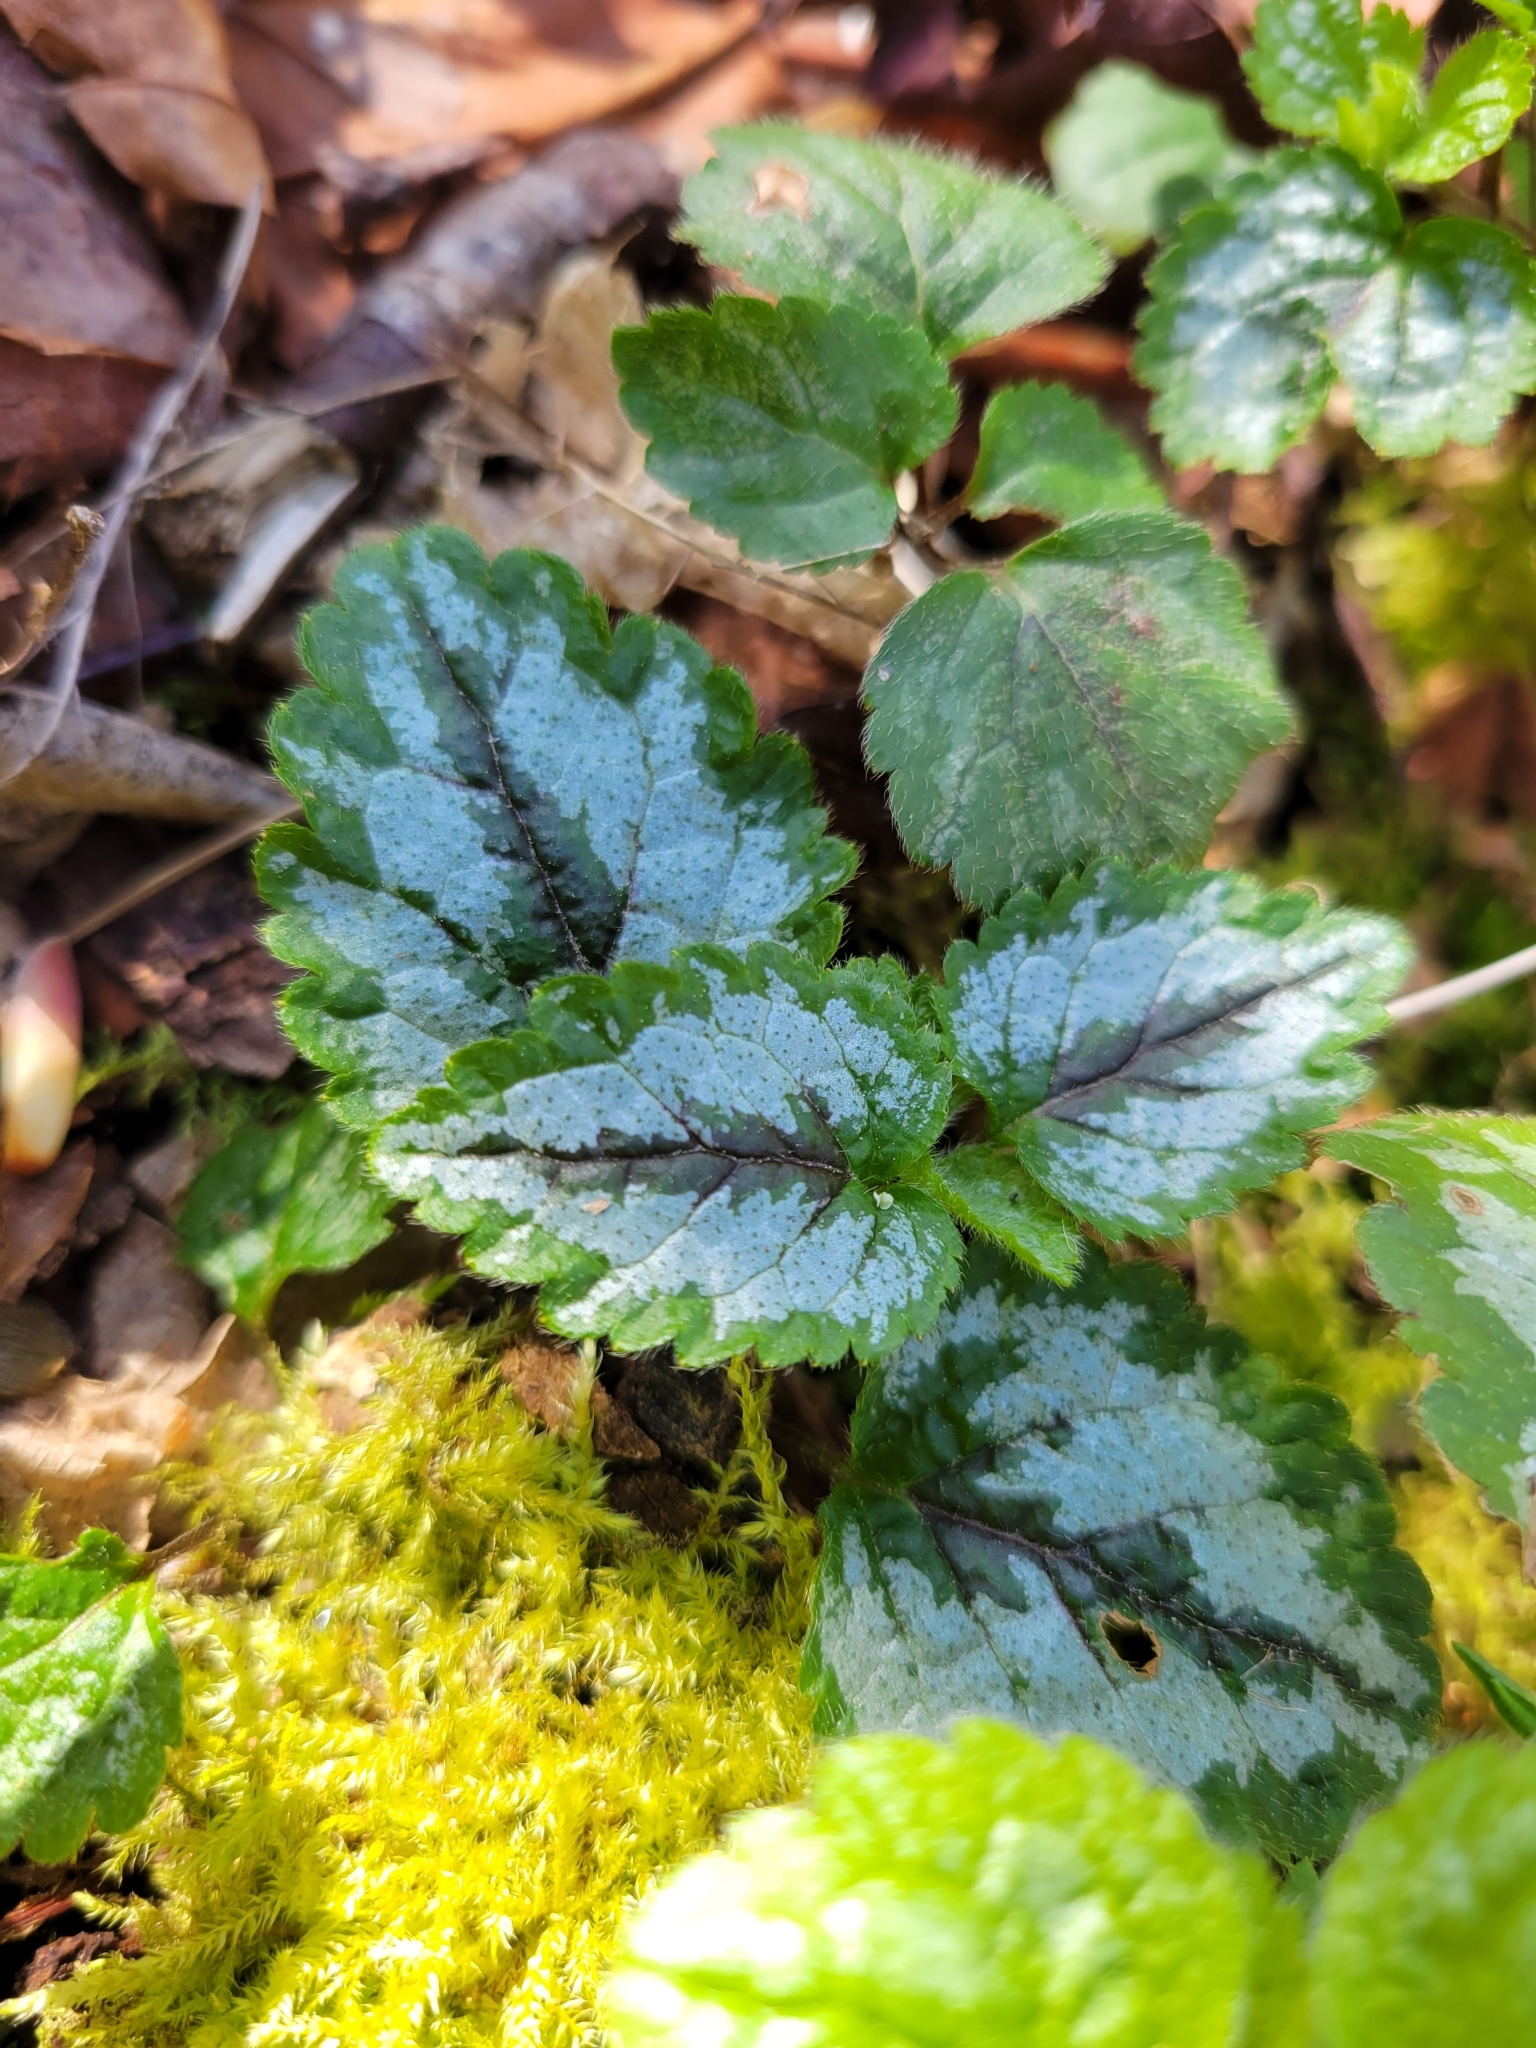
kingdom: Plantae
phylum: Tracheophyta
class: Magnoliopsida
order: Lamiales
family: Lamiaceae
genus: Lamium
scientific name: Lamium galeobdolon
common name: Yellow archangel
